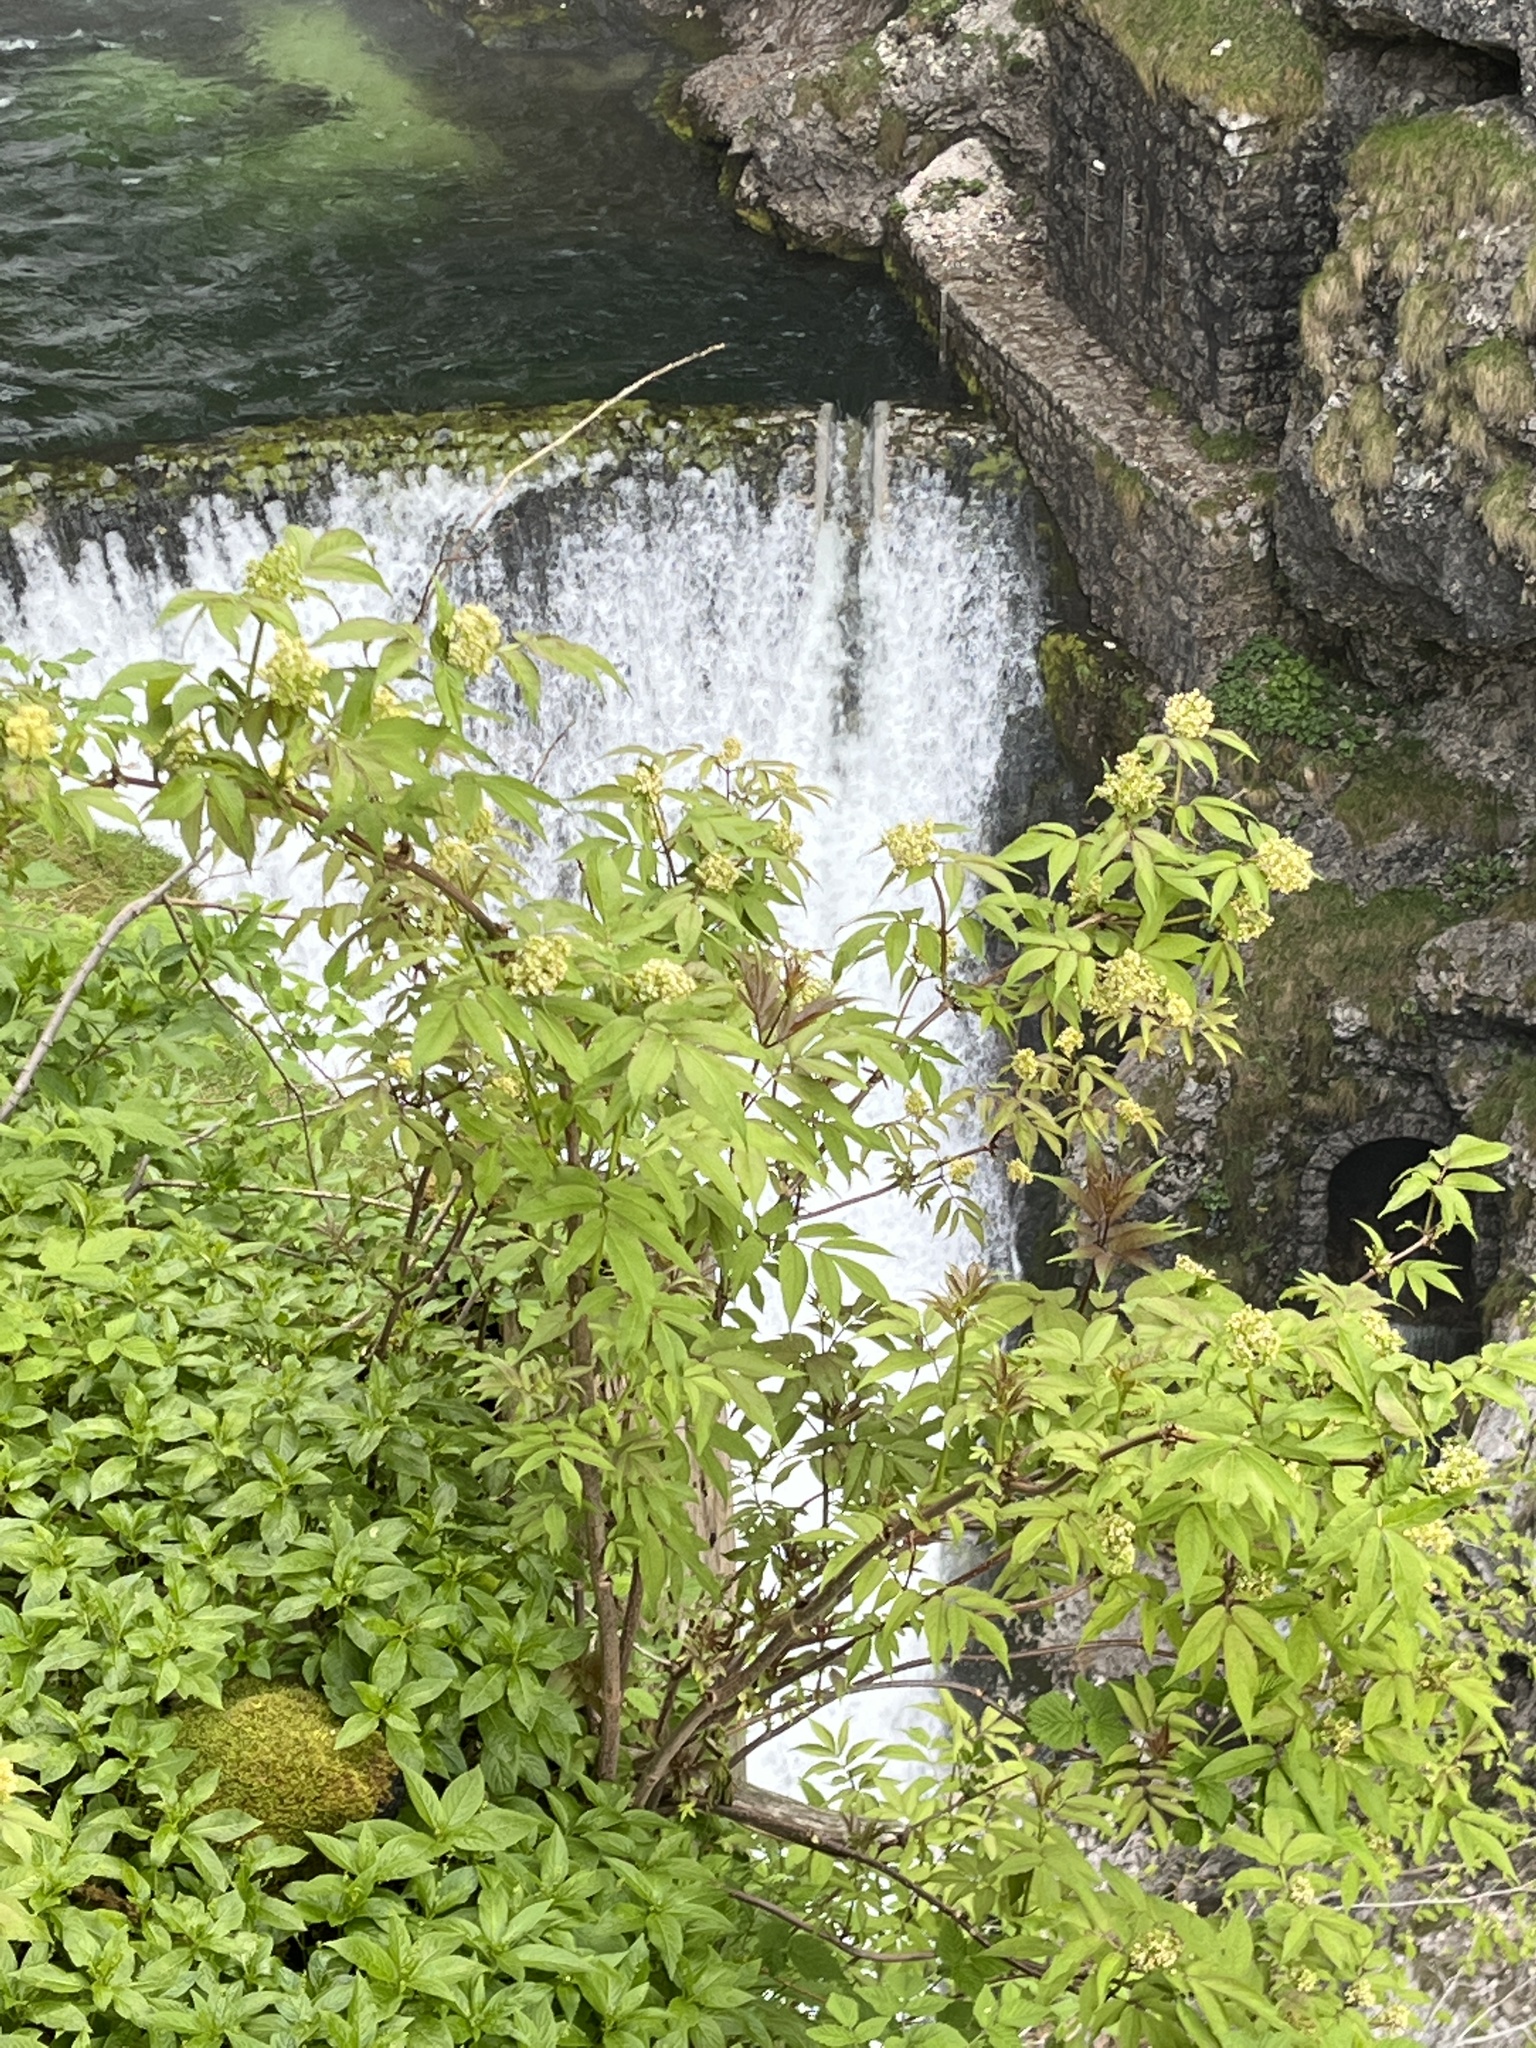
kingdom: Plantae
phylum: Tracheophyta
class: Magnoliopsida
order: Dipsacales
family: Viburnaceae
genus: Sambucus
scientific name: Sambucus racemosa
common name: Red-berried elder
